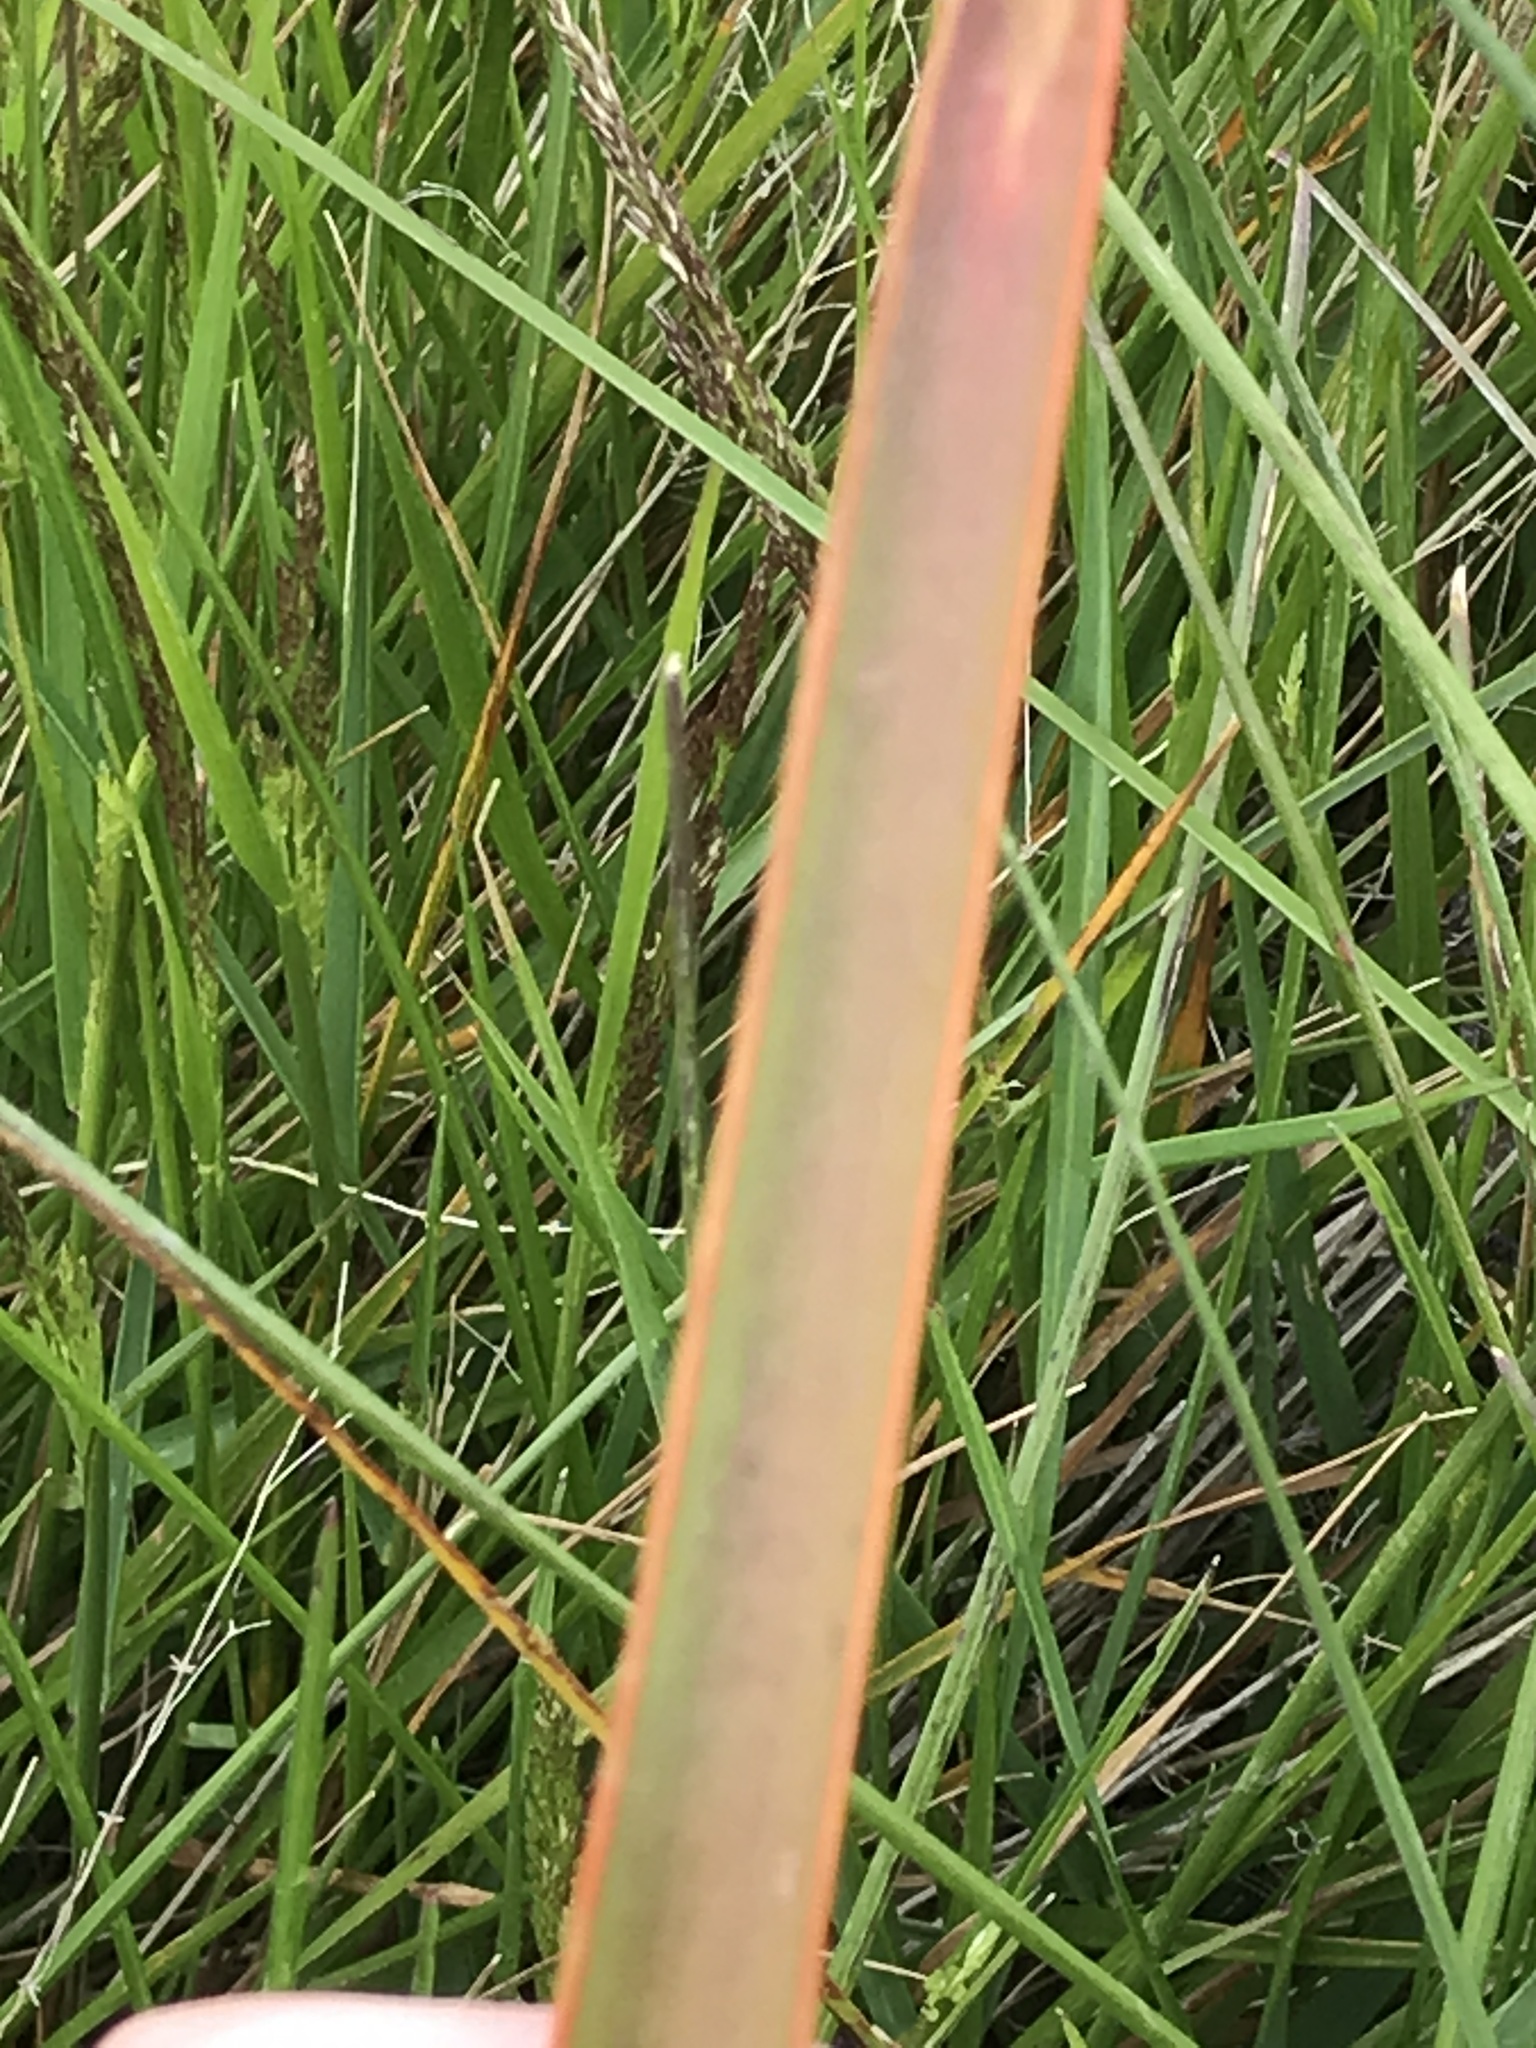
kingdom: Plantae
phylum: Tracheophyta
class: Liliopsida
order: Asparagales
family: Asphodelaceae
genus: Bulbinella
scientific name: Bulbinella angustifolia
